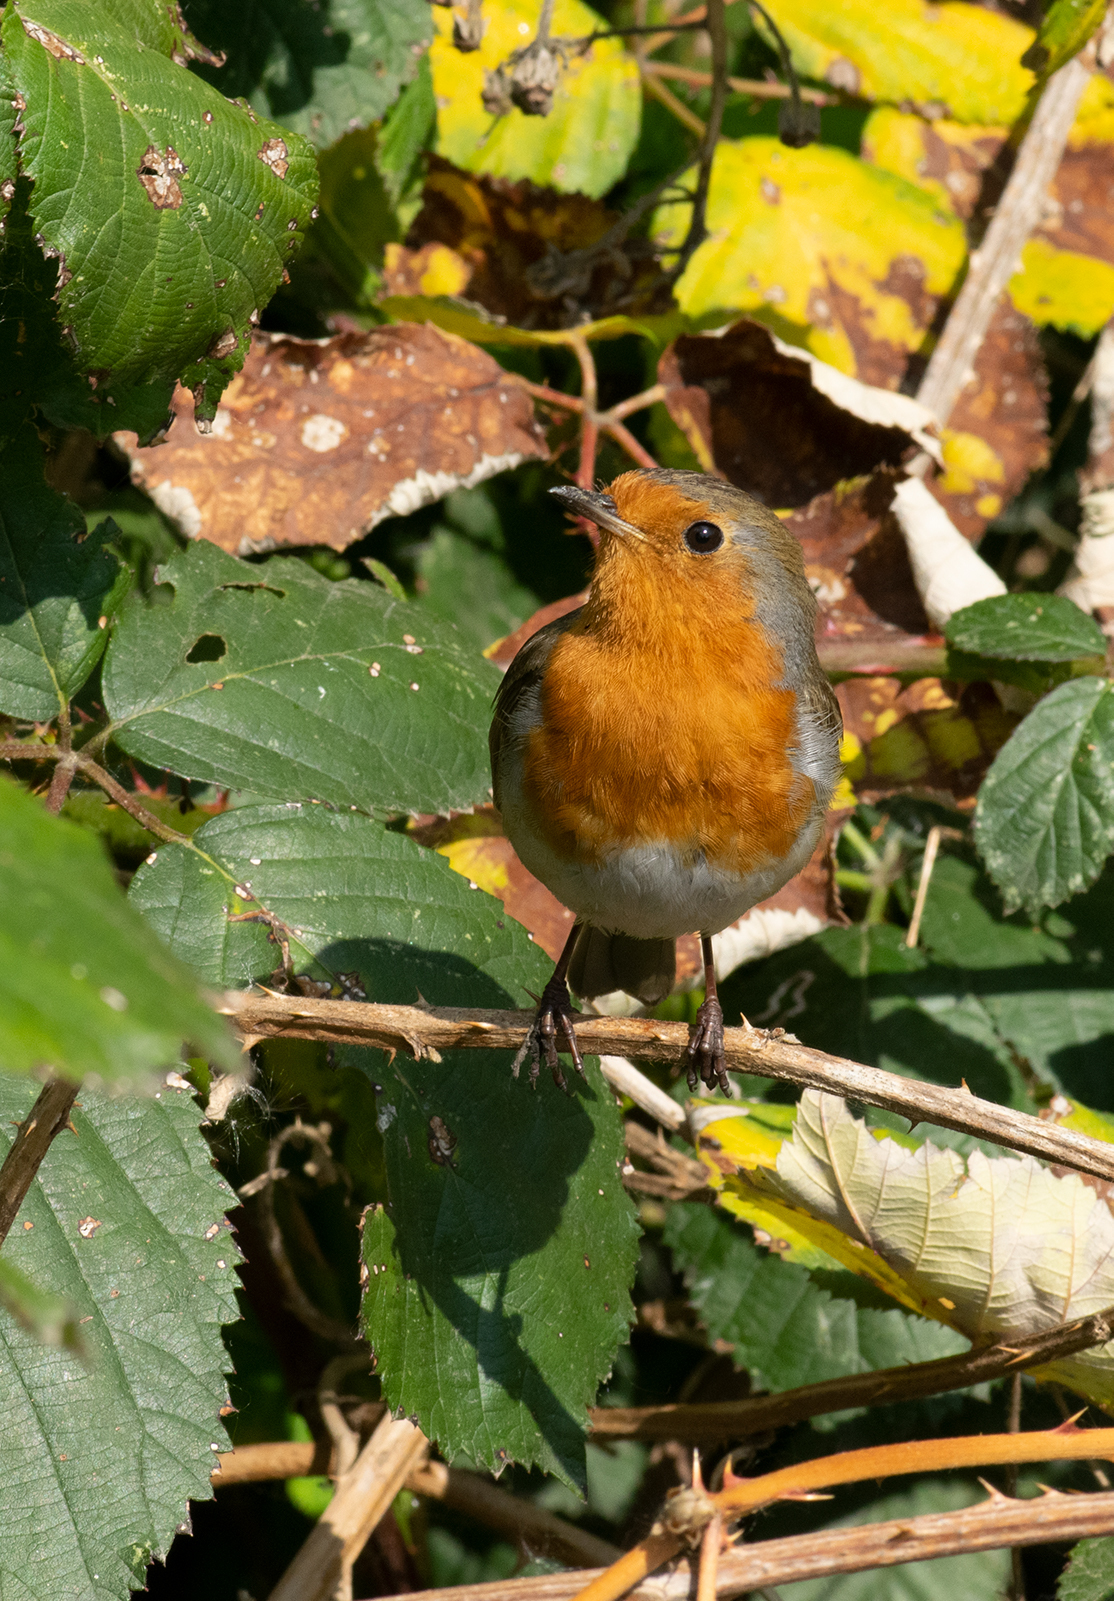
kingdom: Animalia
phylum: Chordata
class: Aves
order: Passeriformes
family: Muscicapidae
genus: Erithacus
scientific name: Erithacus rubecula
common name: European robin
